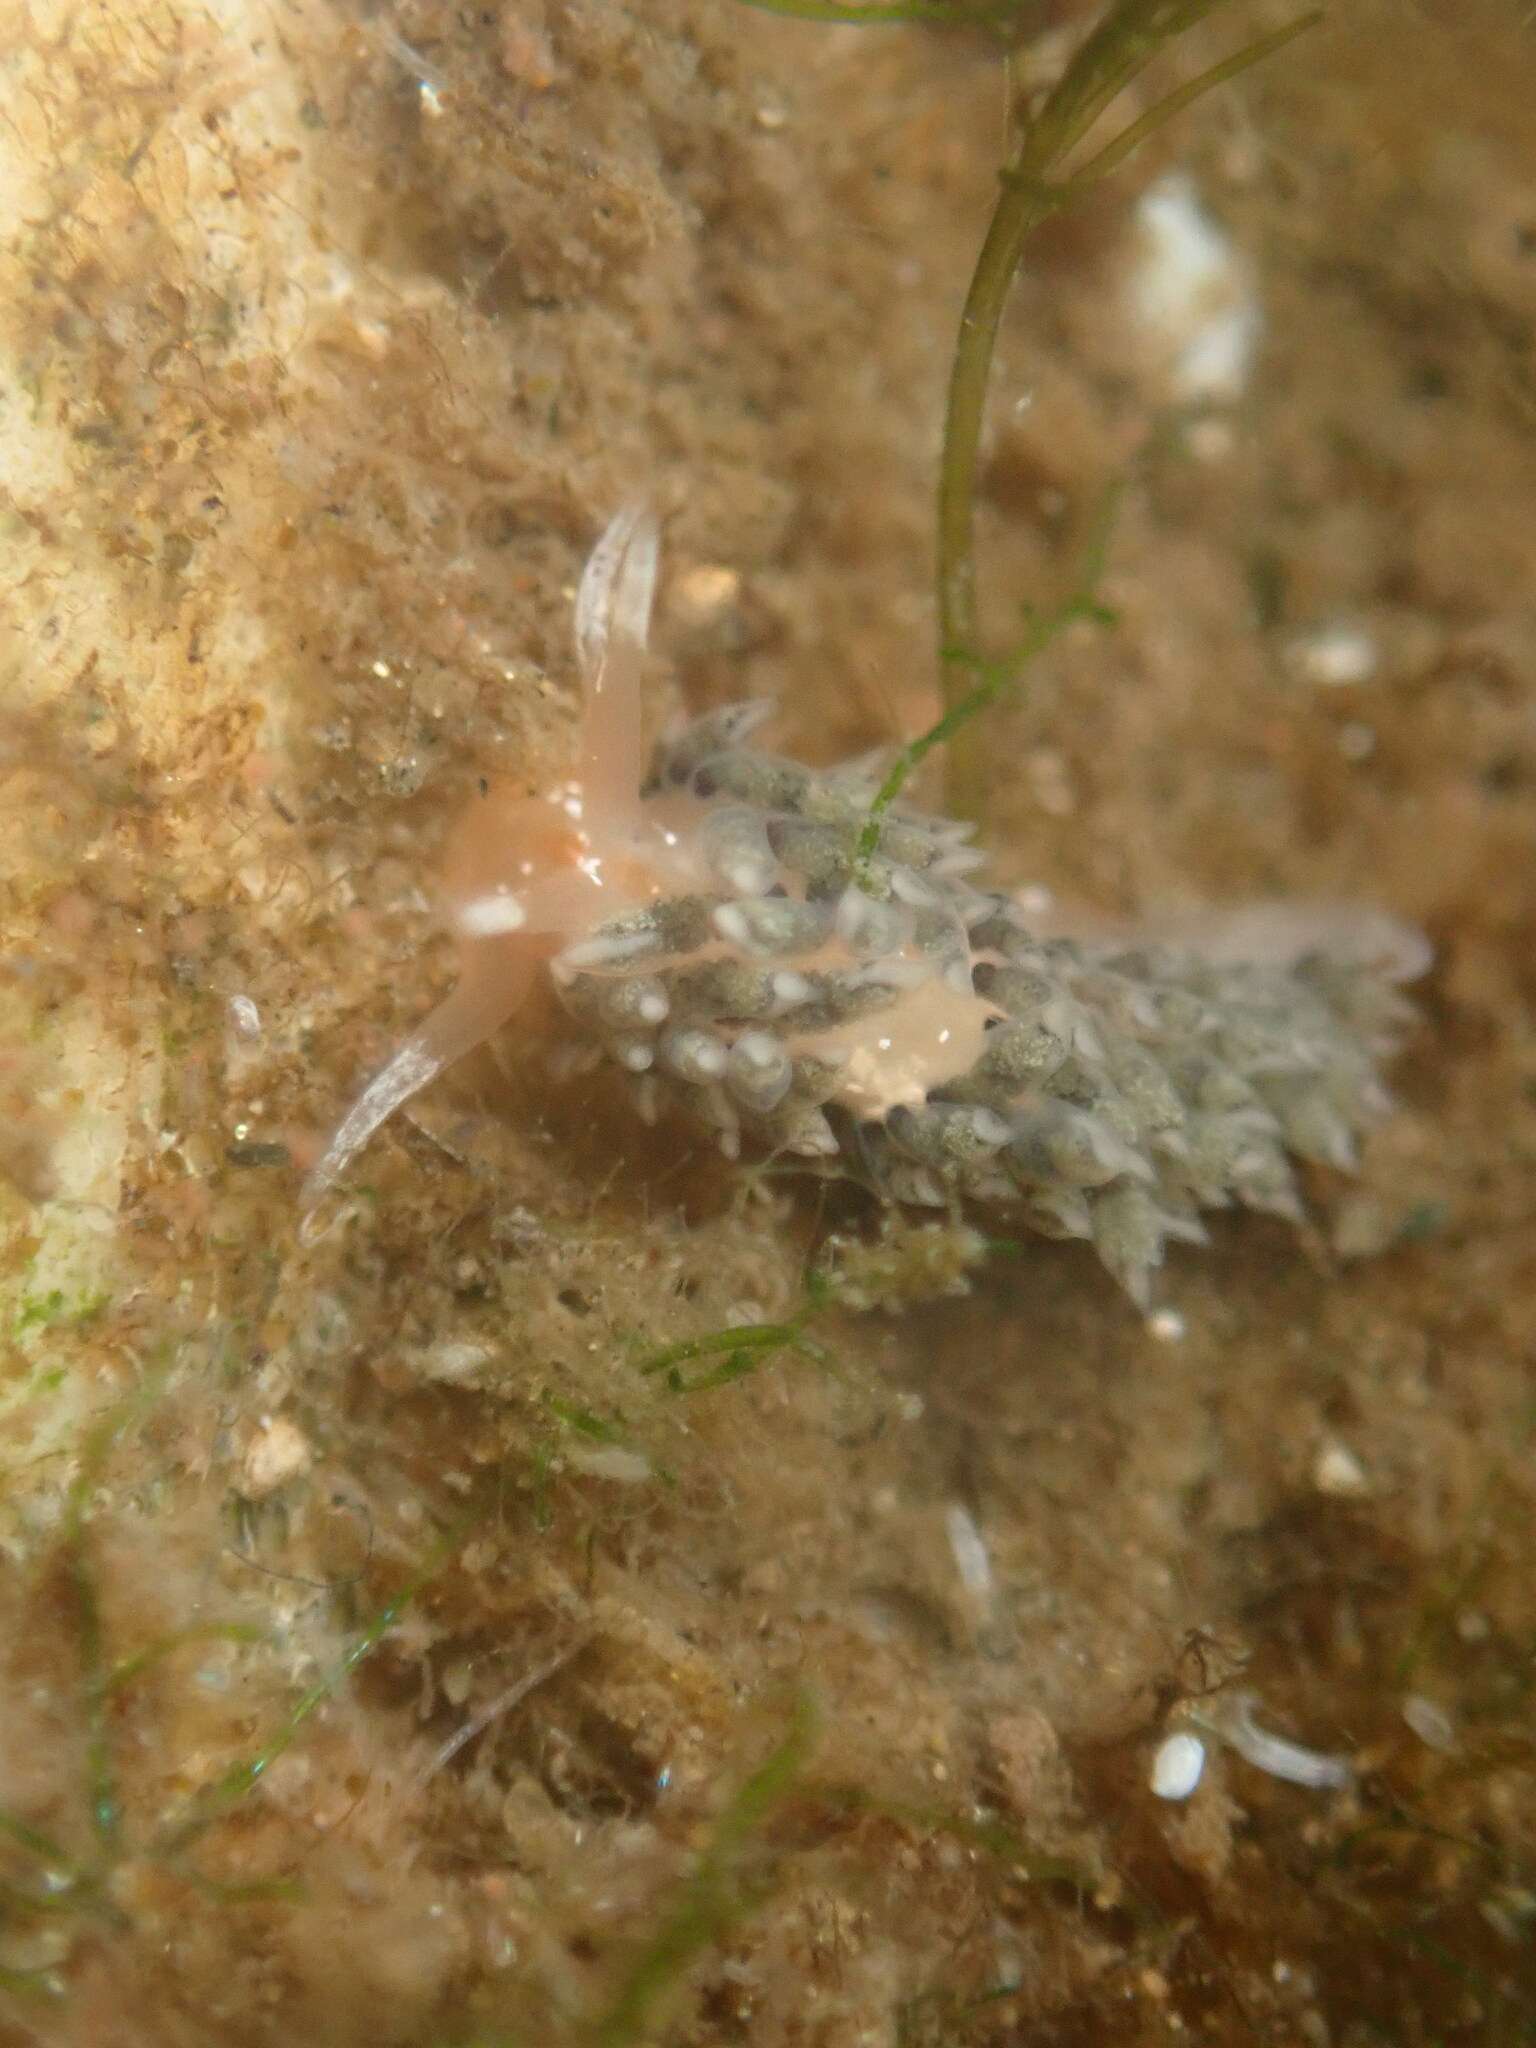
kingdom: Animalia
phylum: Mollusca
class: Gastropoda
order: Nudibranchia
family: Facelinidae
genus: Emarcusia
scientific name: Emarcusia morroensis
